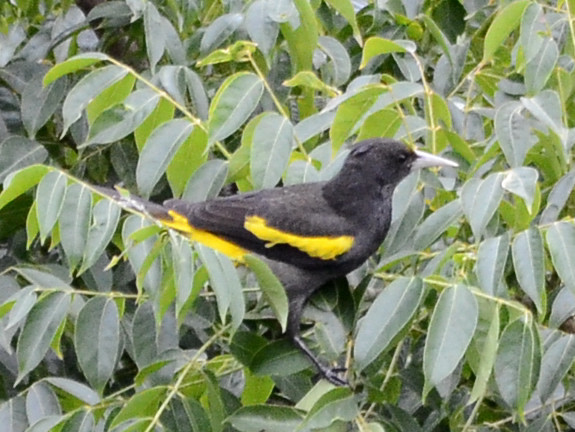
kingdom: Animalia
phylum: Chordata
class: Aves
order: Passeriformes
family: Icteridae
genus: Cacicus
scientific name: Cacicus melanicterus
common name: Yellow-winged cacique
